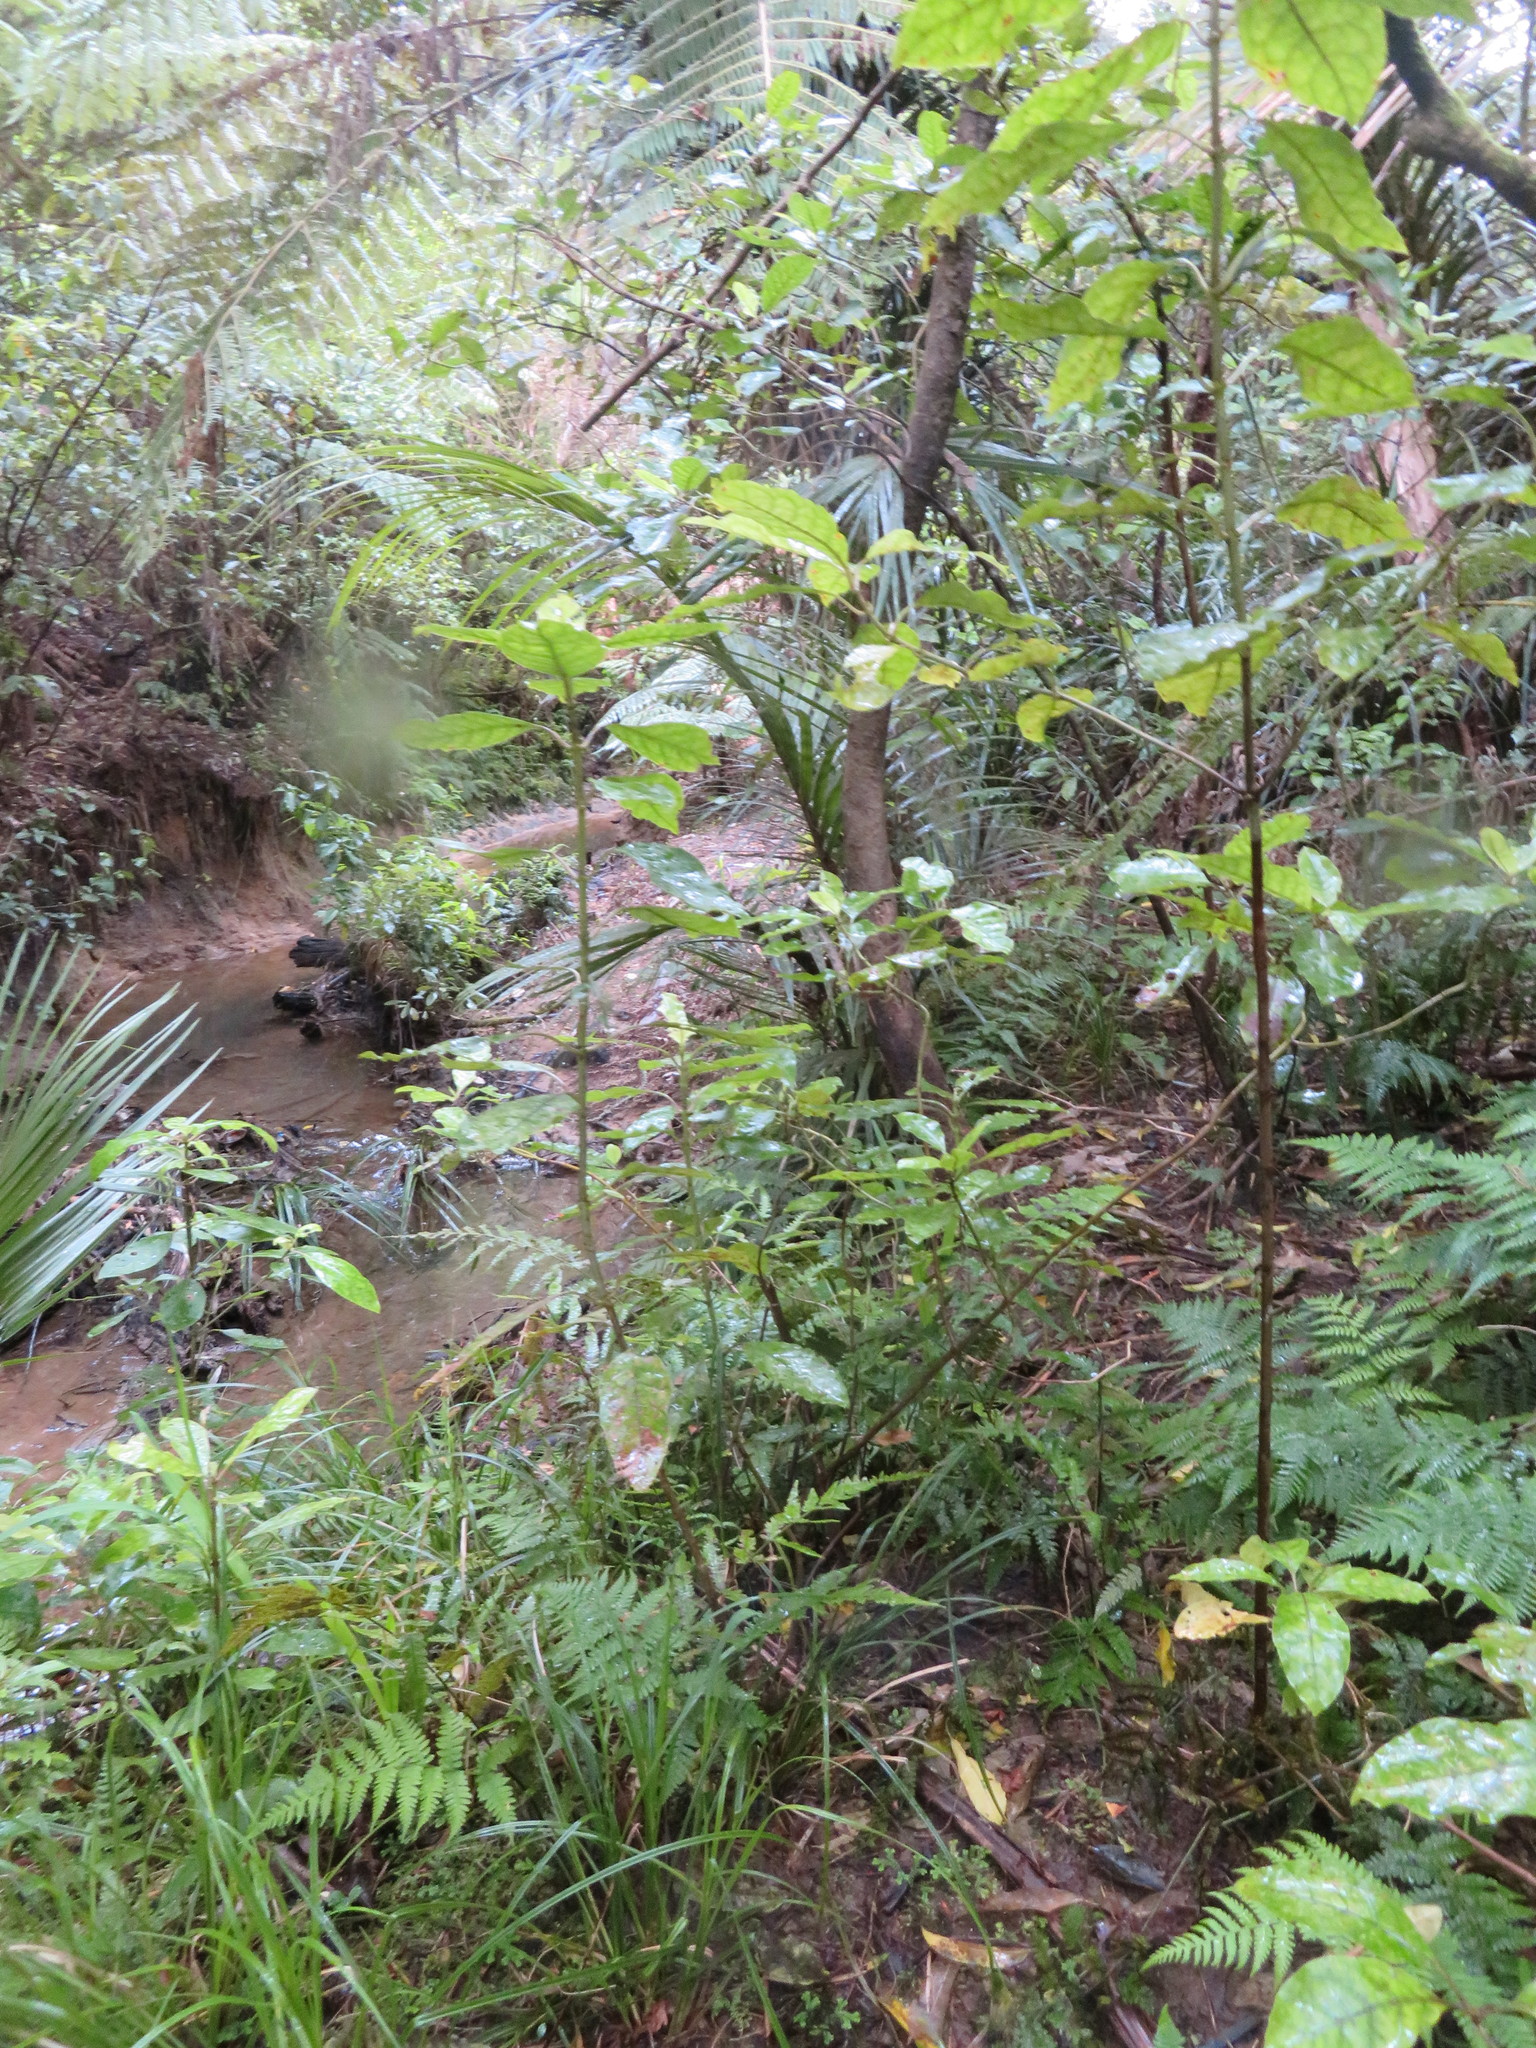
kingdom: Plantae
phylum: Tracheophyta
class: Magnoliopsida
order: Gentianales
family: Rubiaceae
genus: Coprosma
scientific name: Coprosma autumnalis
